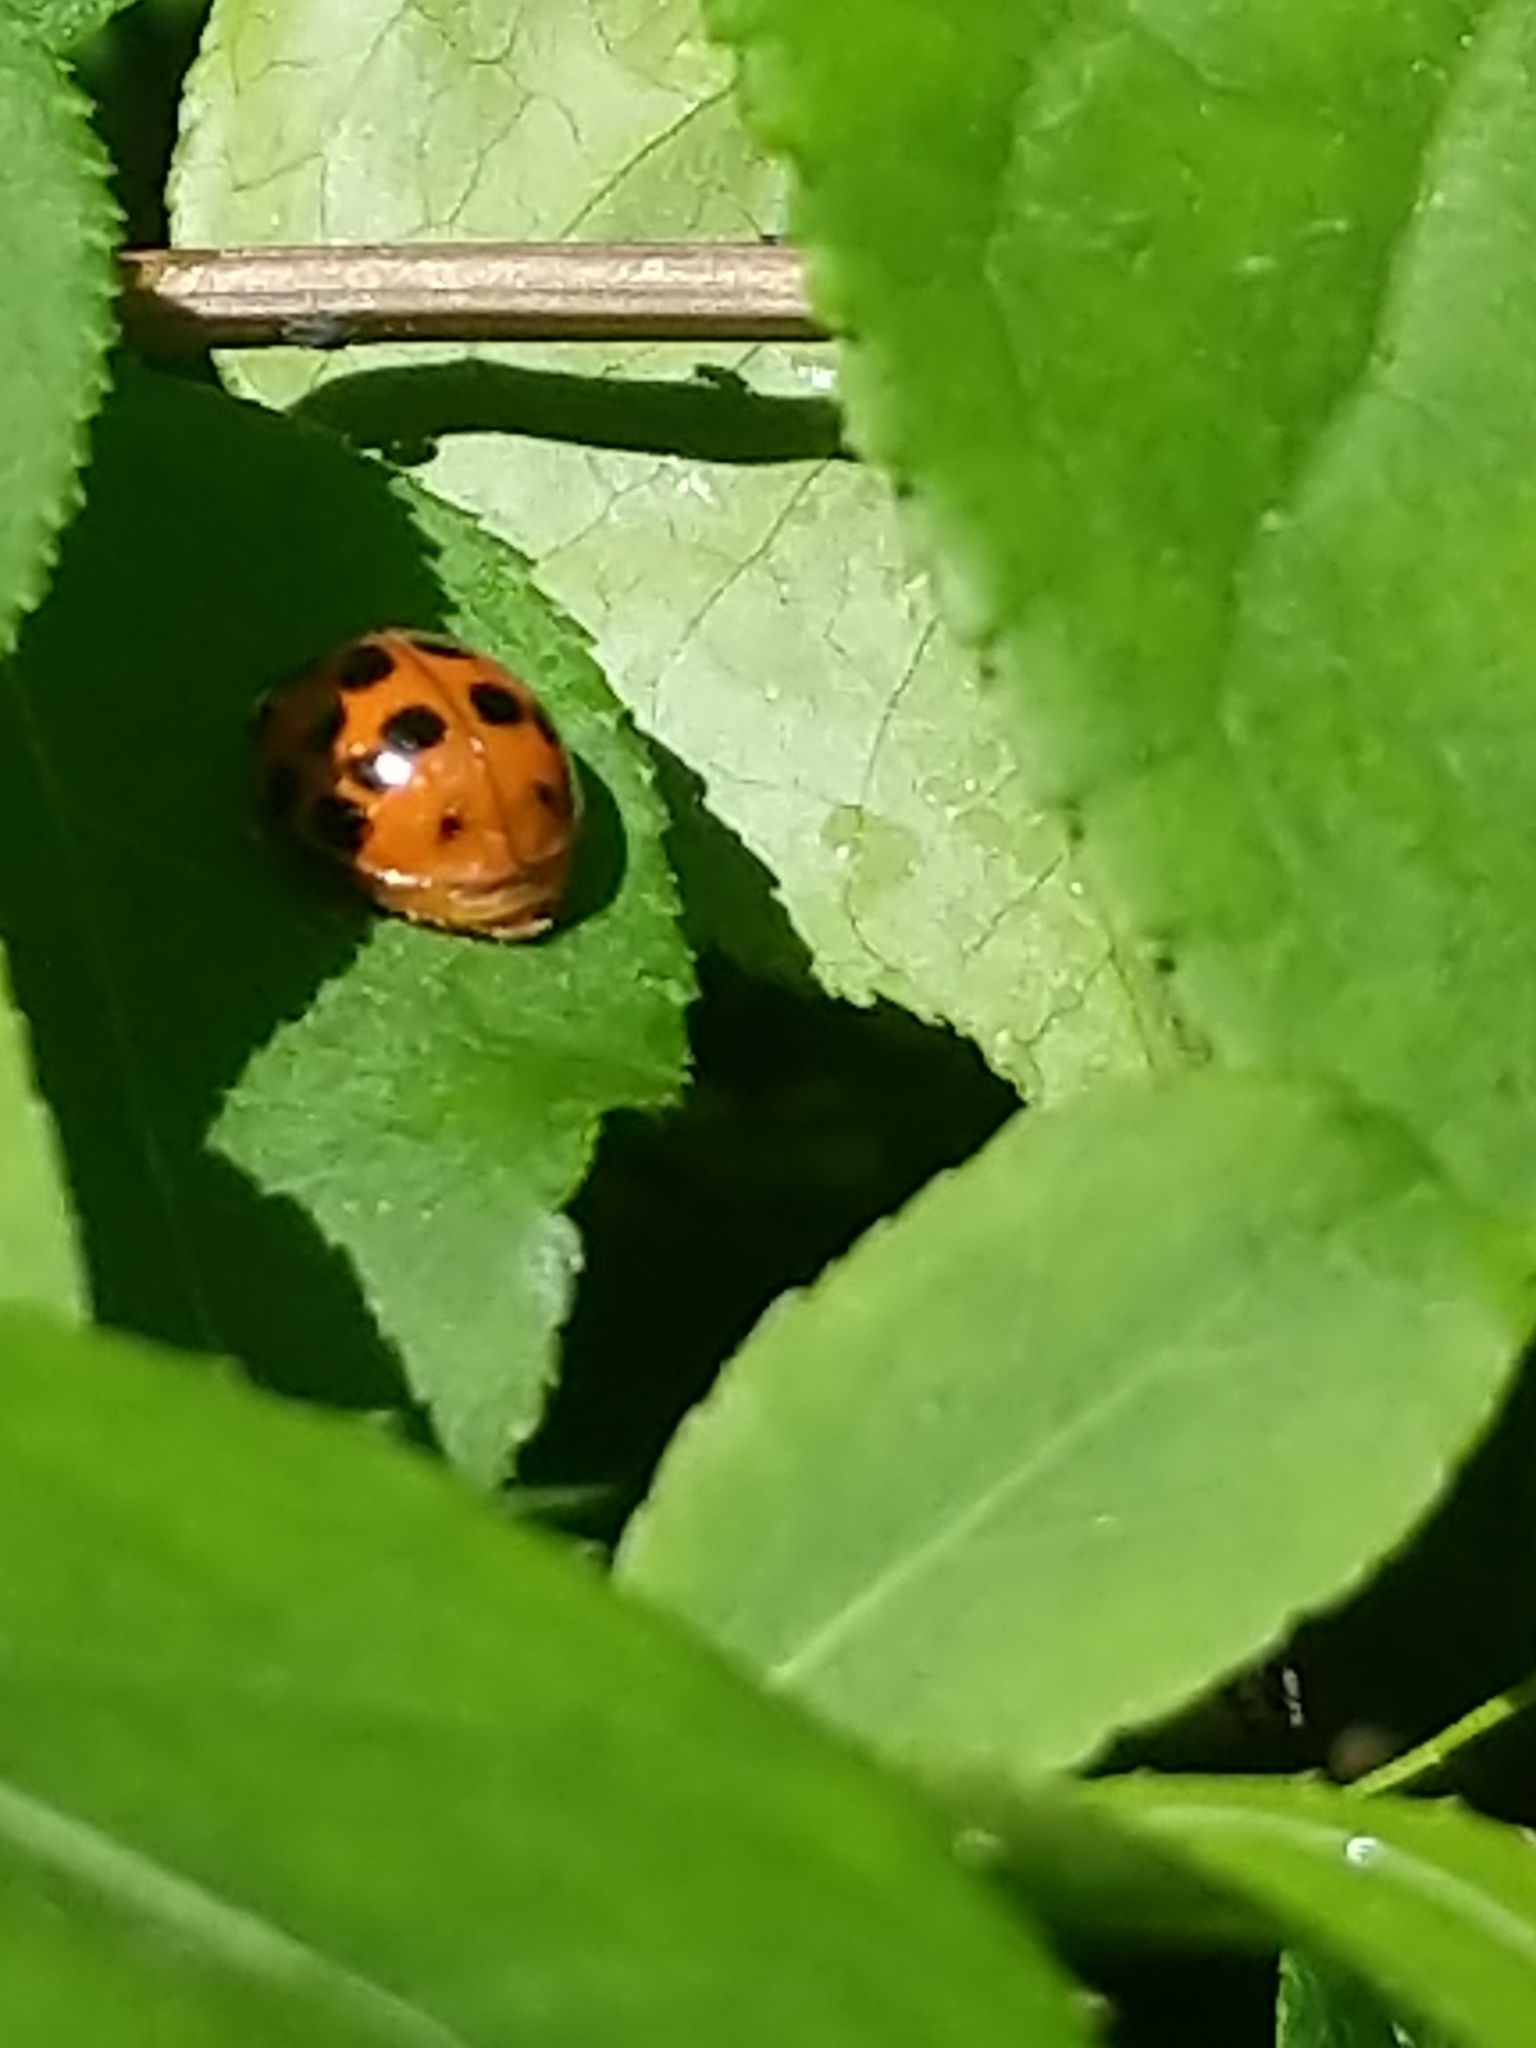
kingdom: Animalia
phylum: Arthropoda
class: Insecta
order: Coleoptera
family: Coccinellidae
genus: Harmonia
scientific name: Harmonia axyridis
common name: Harlequin ladybird
